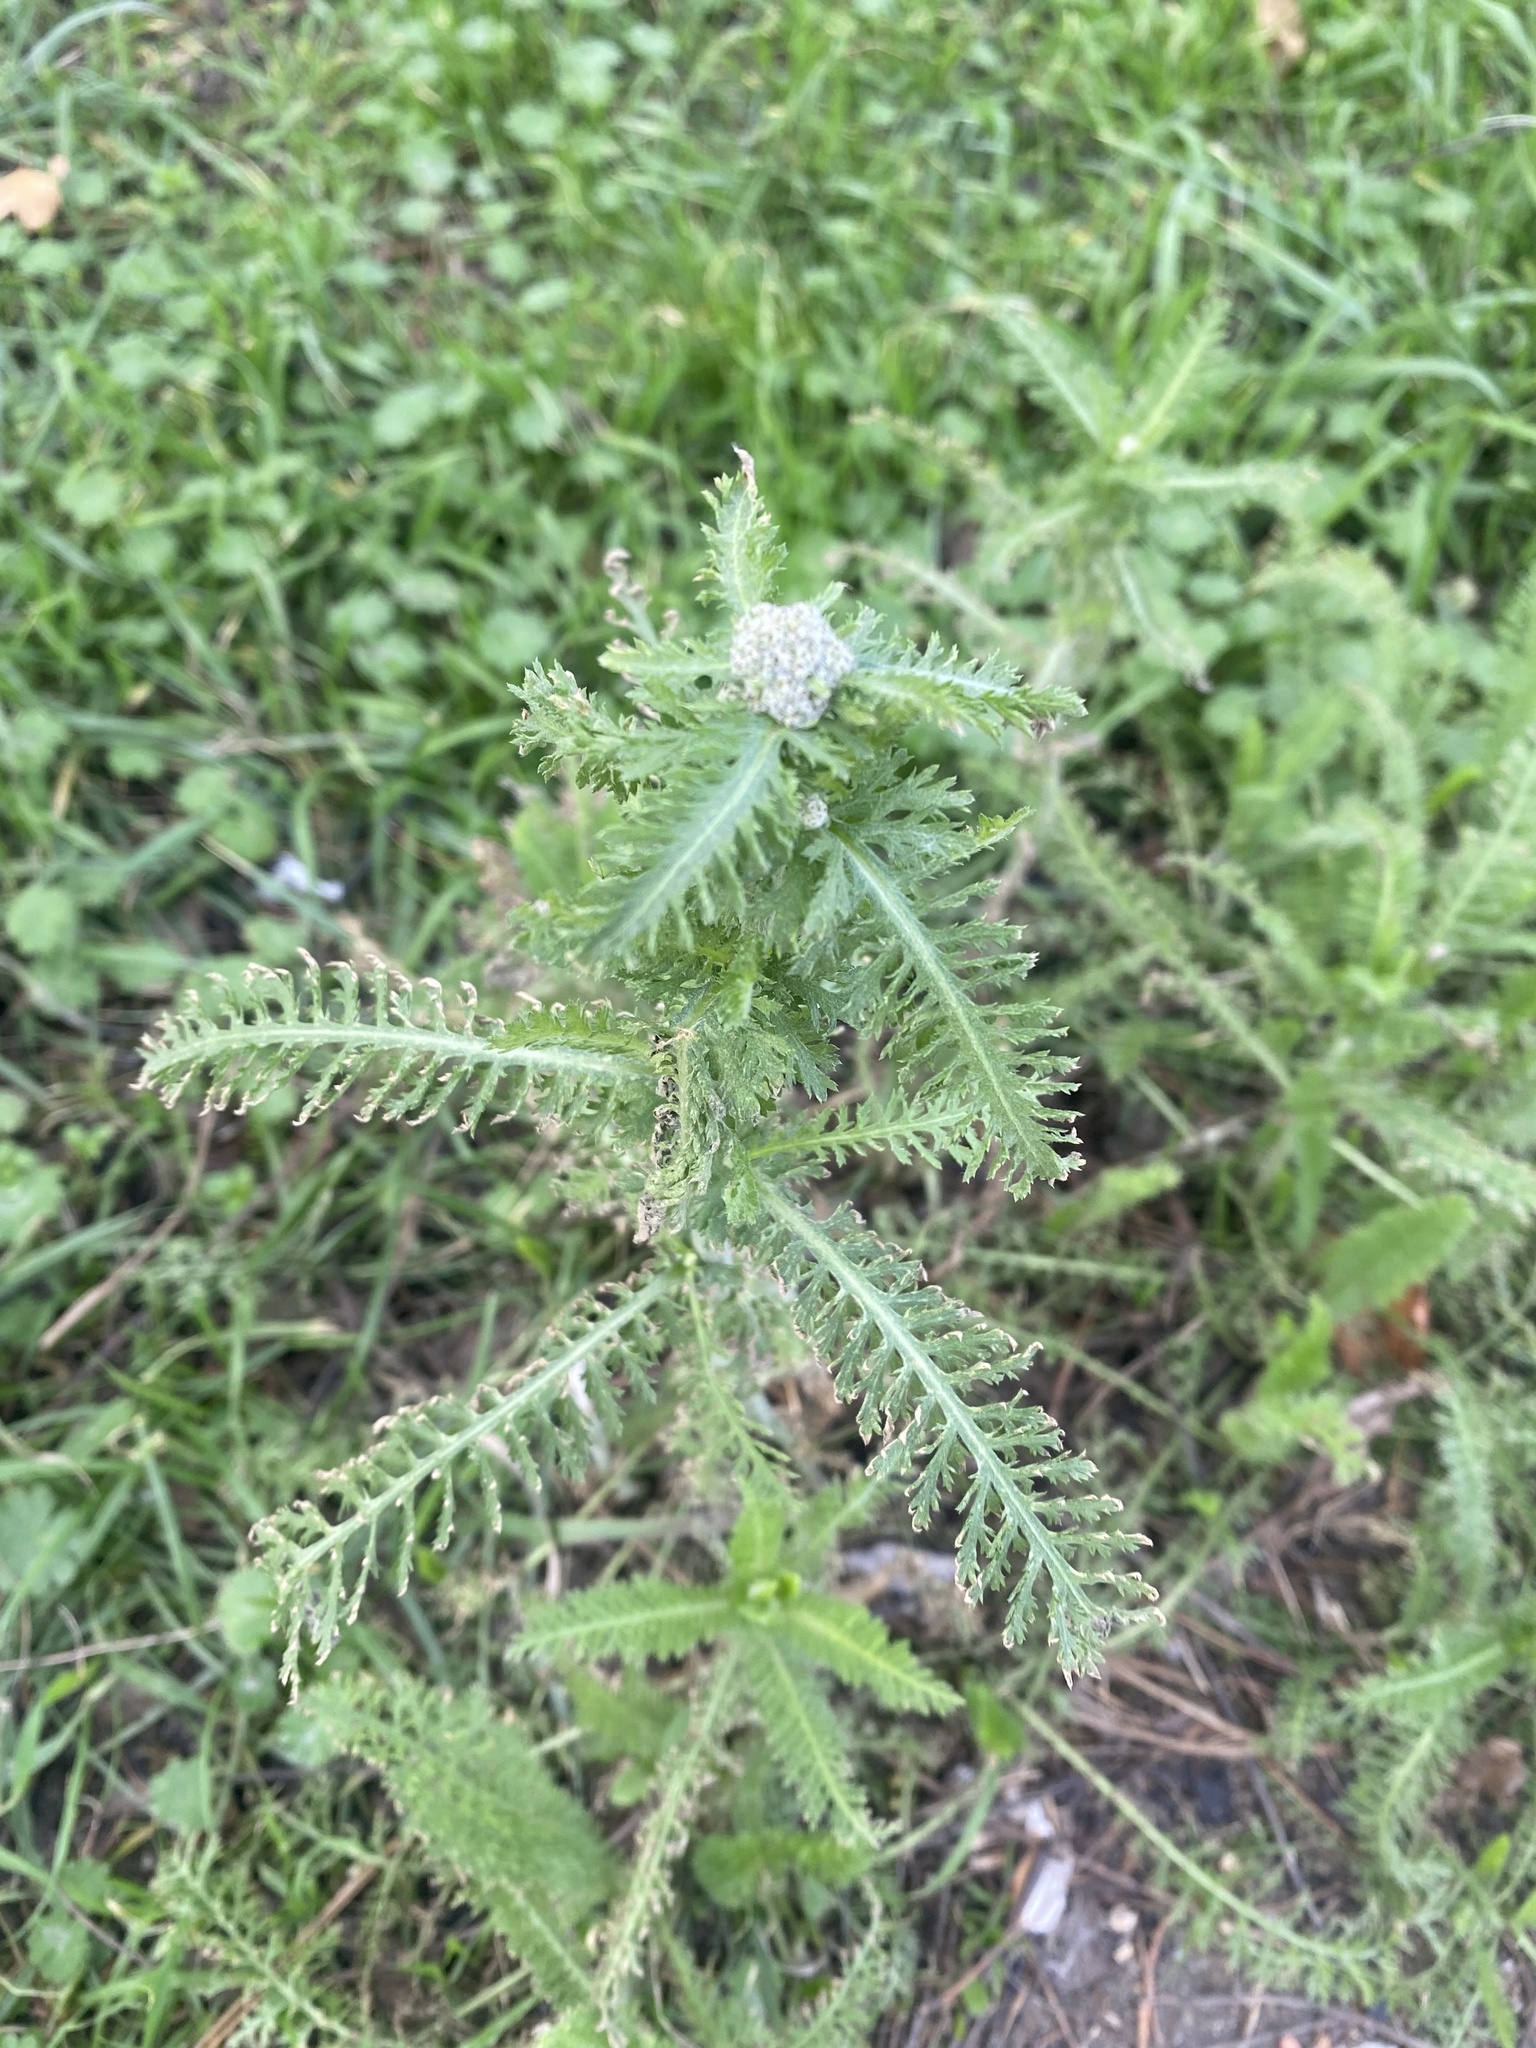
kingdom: Plantae
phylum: Tracheophyta
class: Magnoliopsida
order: Asterales
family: Asteraceae
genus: Achillea
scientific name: Achillea setacea
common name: Bristly yarrow
